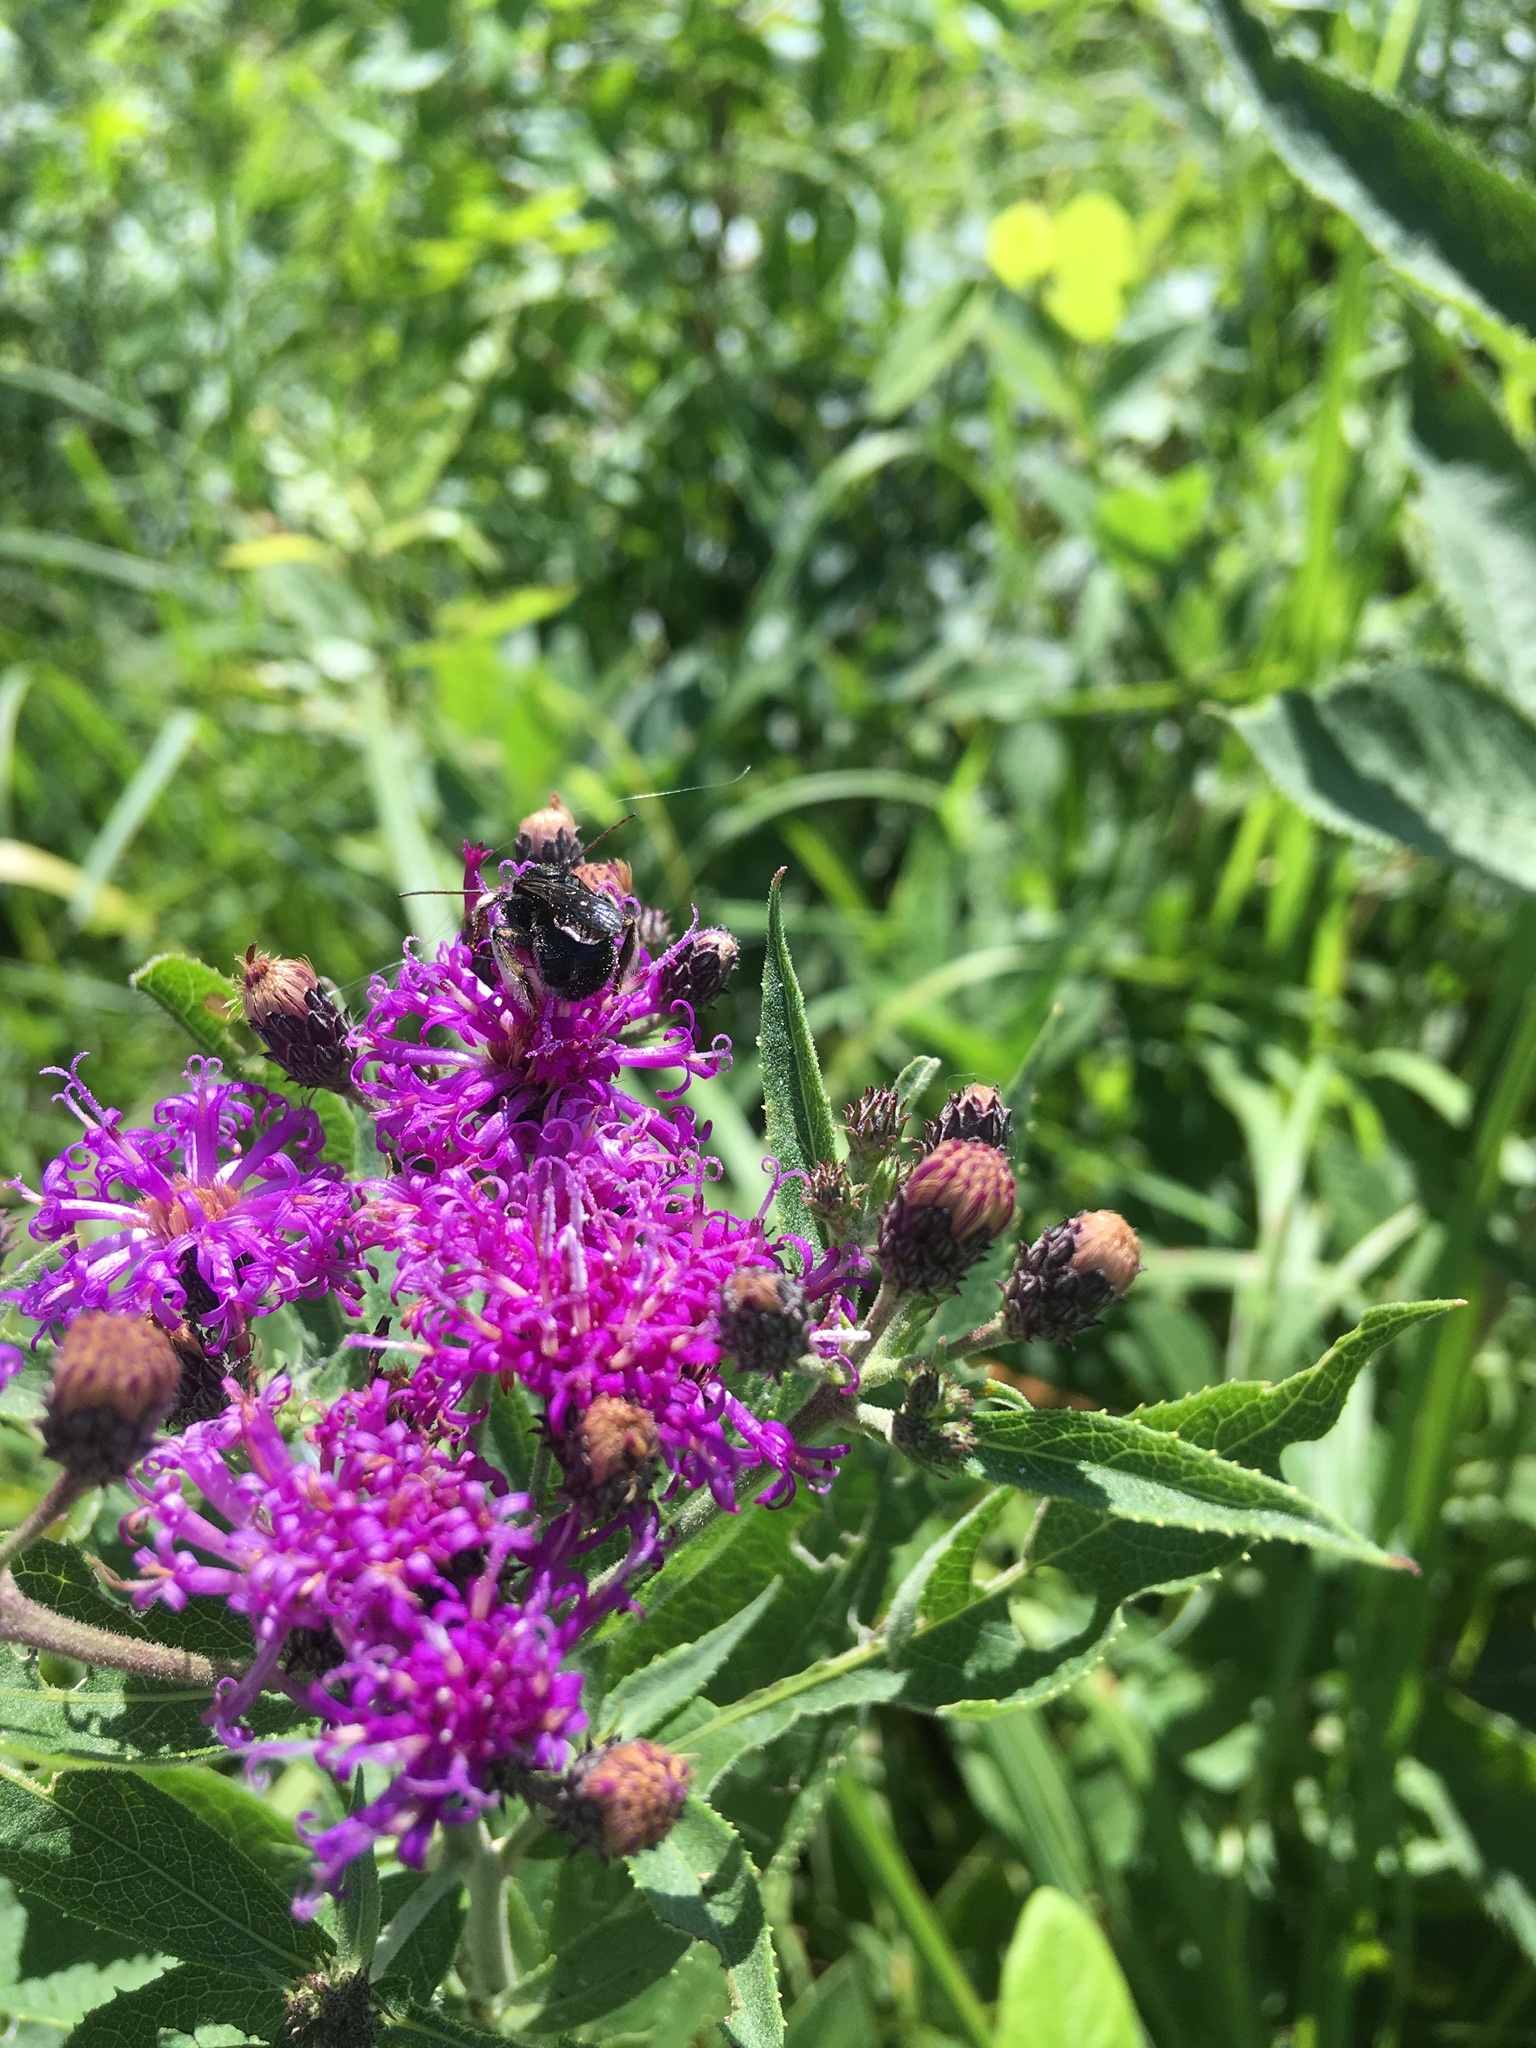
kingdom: Animalia
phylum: Arthropoda
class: Insecta
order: Hymenoptera
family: Apidae
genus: Melissodes
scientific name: Melissodes bimaculatus
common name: Two-spotted long-horned bee
